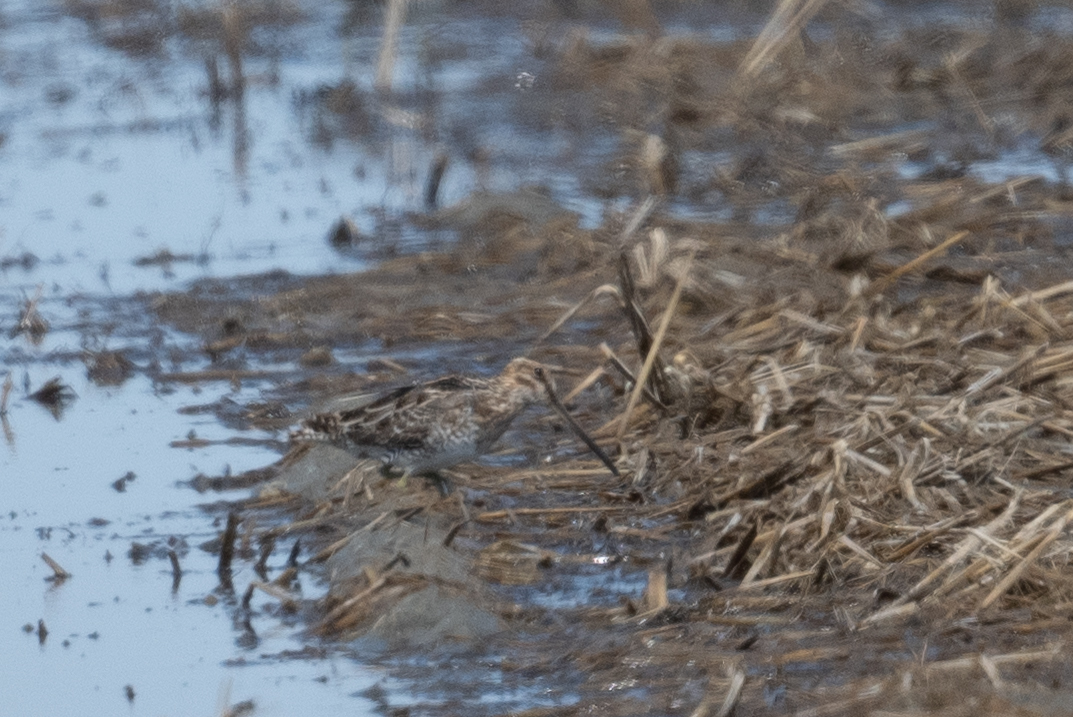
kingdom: Animalia
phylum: Chordata
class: Aves
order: Charadriiformes
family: Scolopacidae
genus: Gallinago
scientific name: Gallinago delicata
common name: Wilson's snipe
